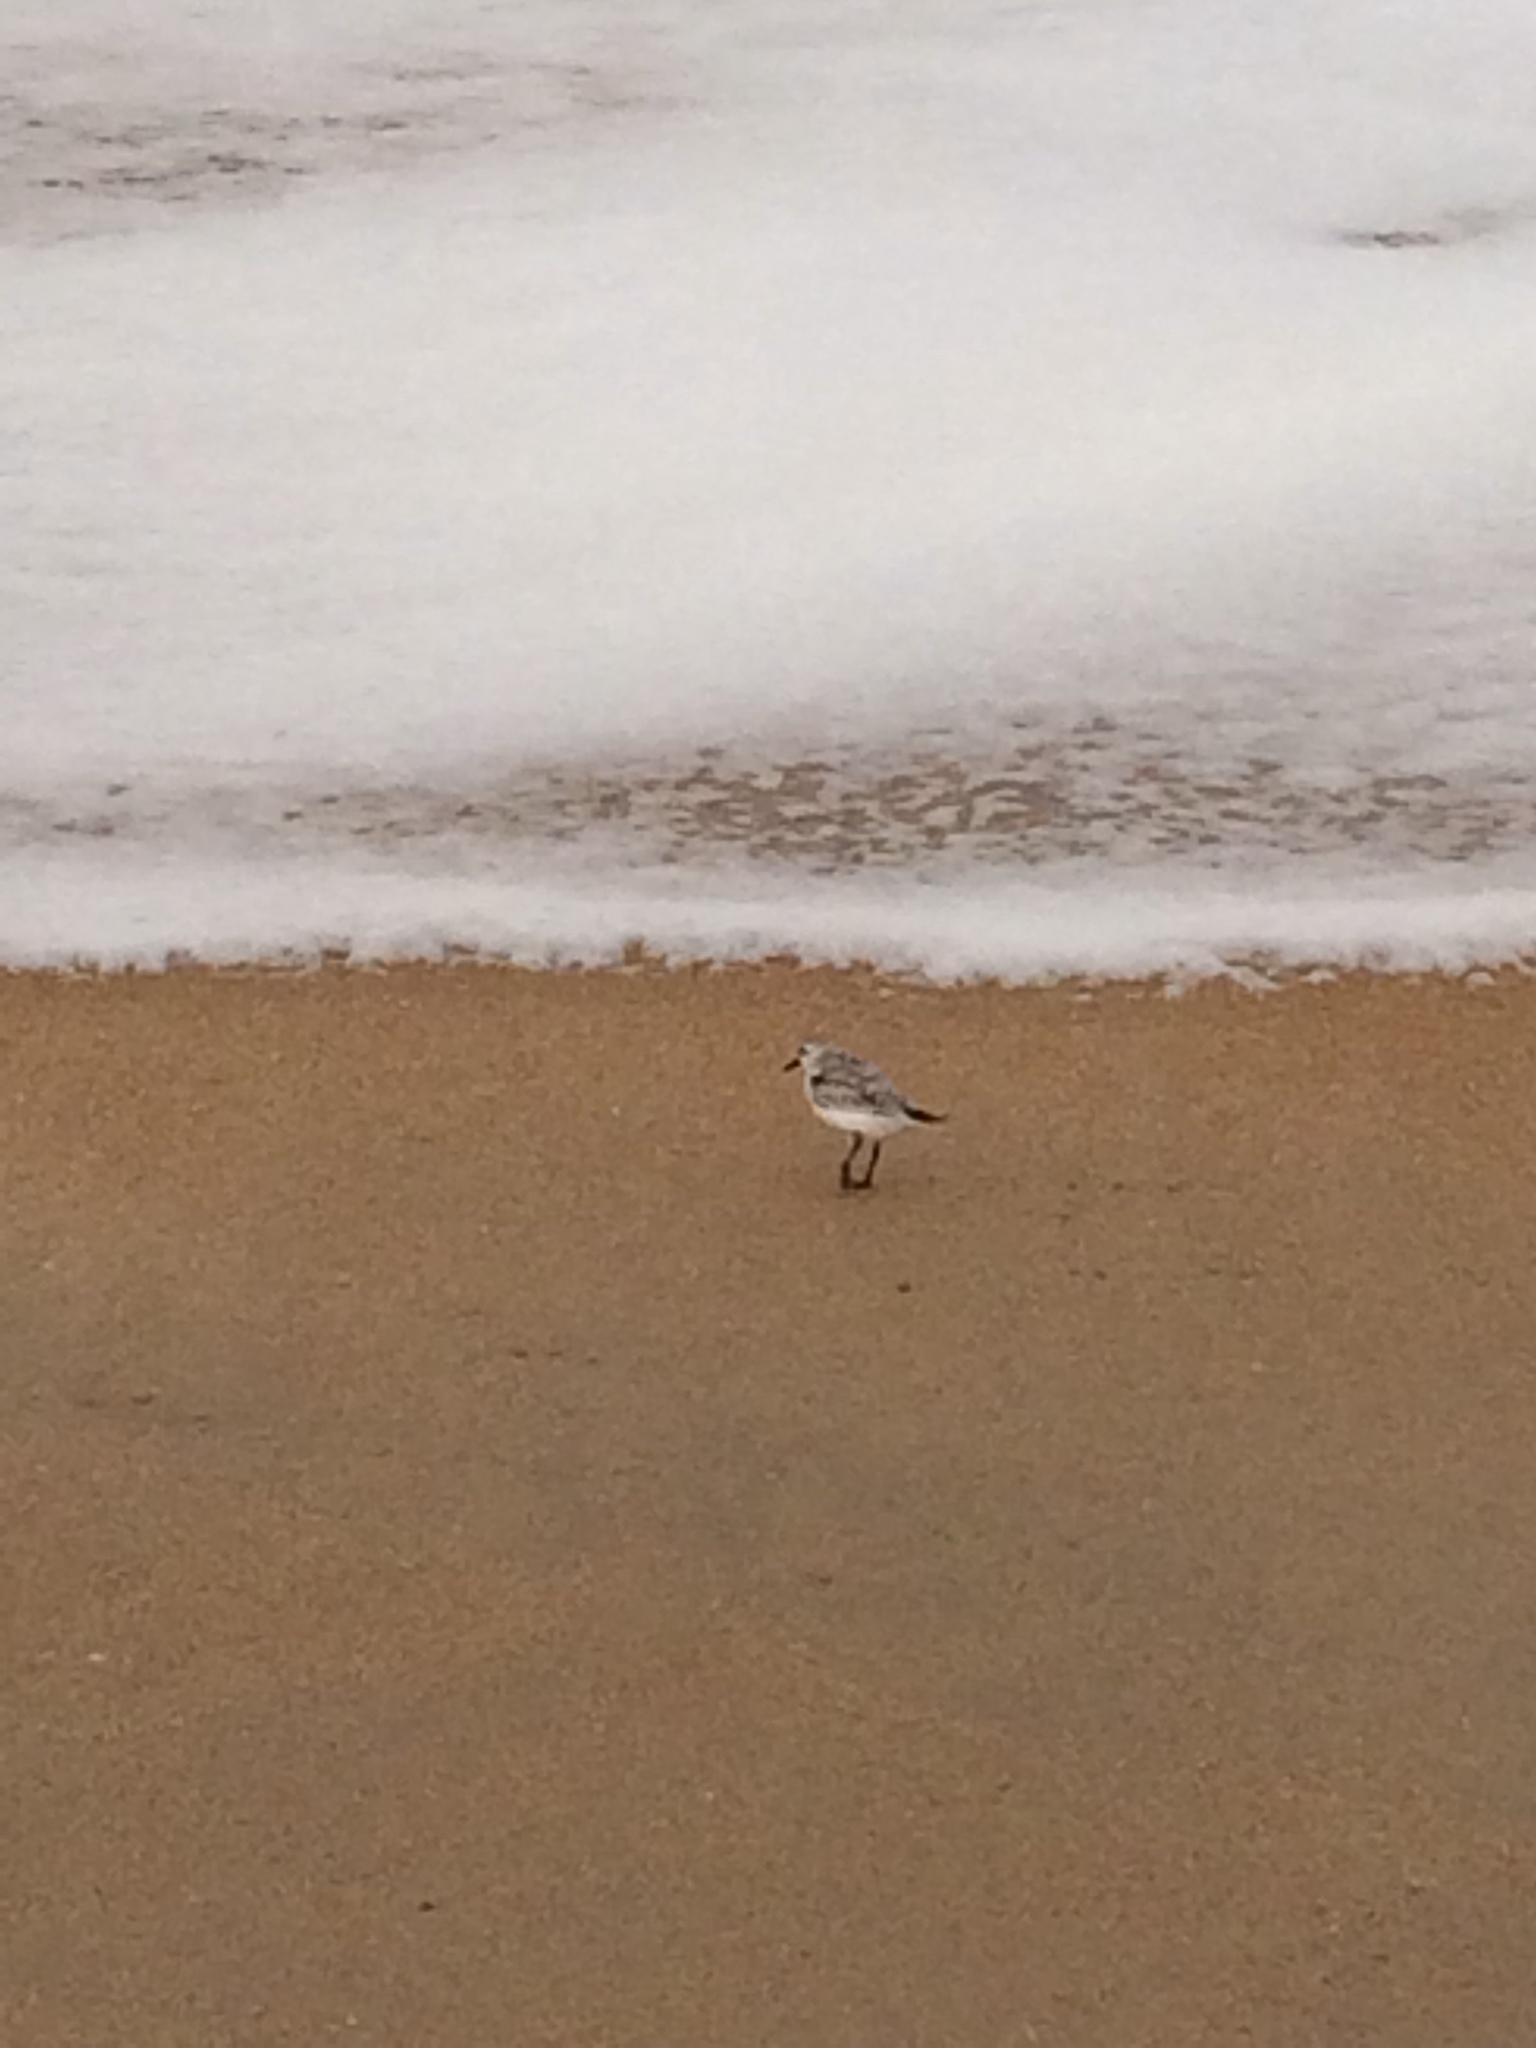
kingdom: Animalia
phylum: Chordata
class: Aves
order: Charadriiformes
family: Scolopacidae
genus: Calidris
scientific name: Calidris alba
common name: Sanderling
